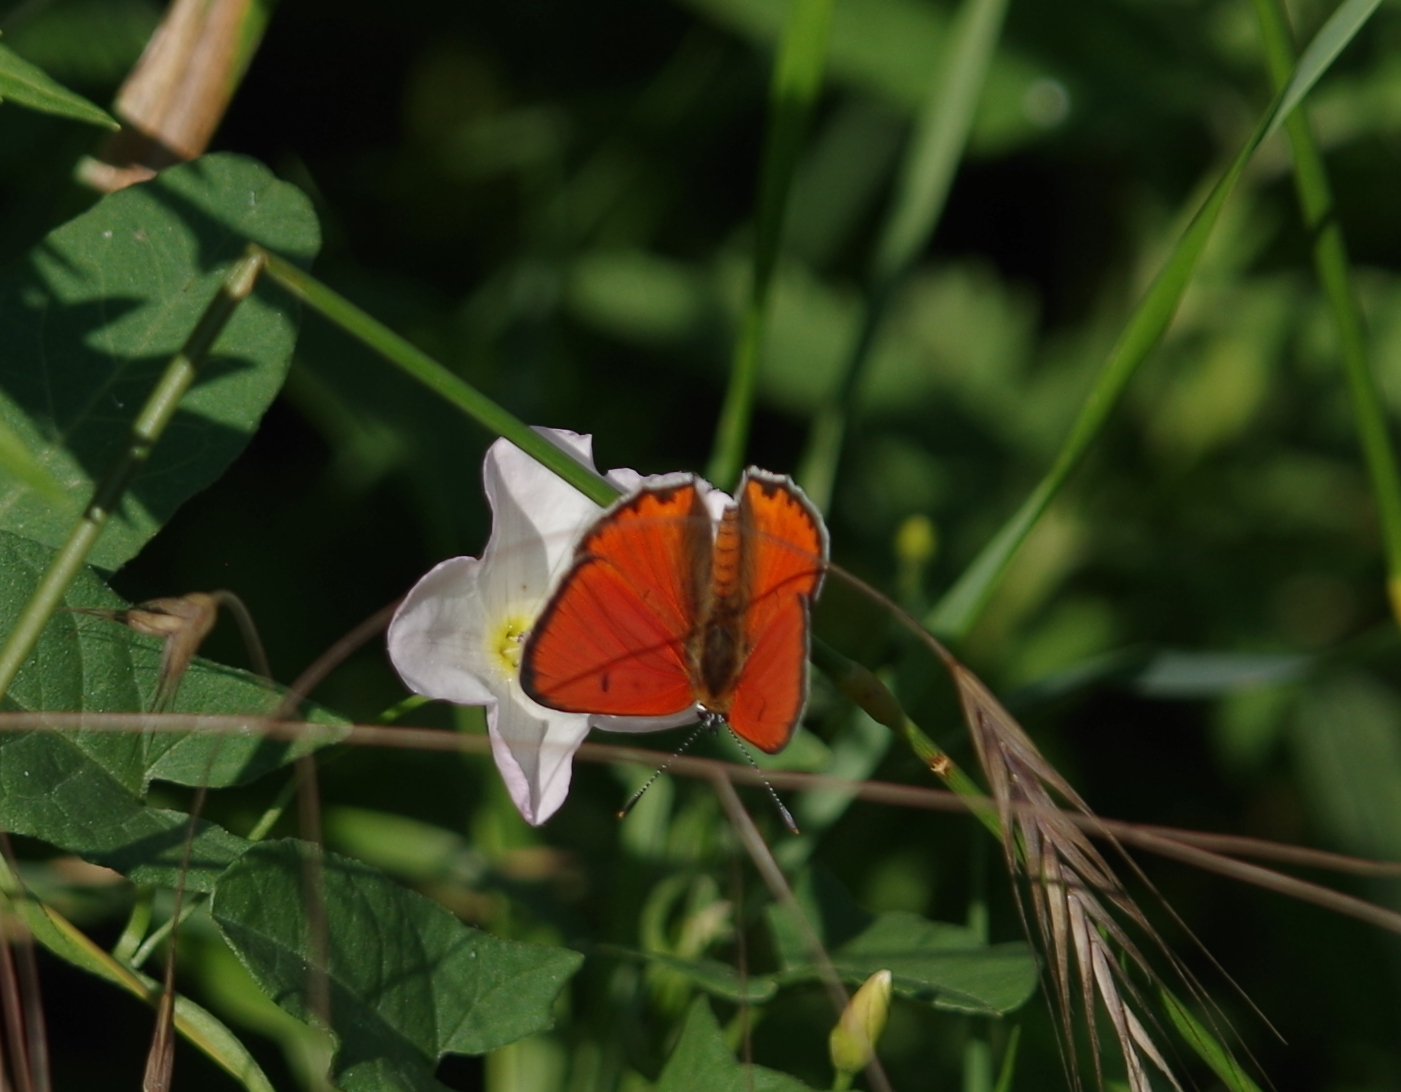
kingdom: Animalia
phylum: Arthropoda
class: Insecta
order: Lepidoptera
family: Lycaenidae
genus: Lycaena
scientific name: Lycaena dispar
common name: Large copper
